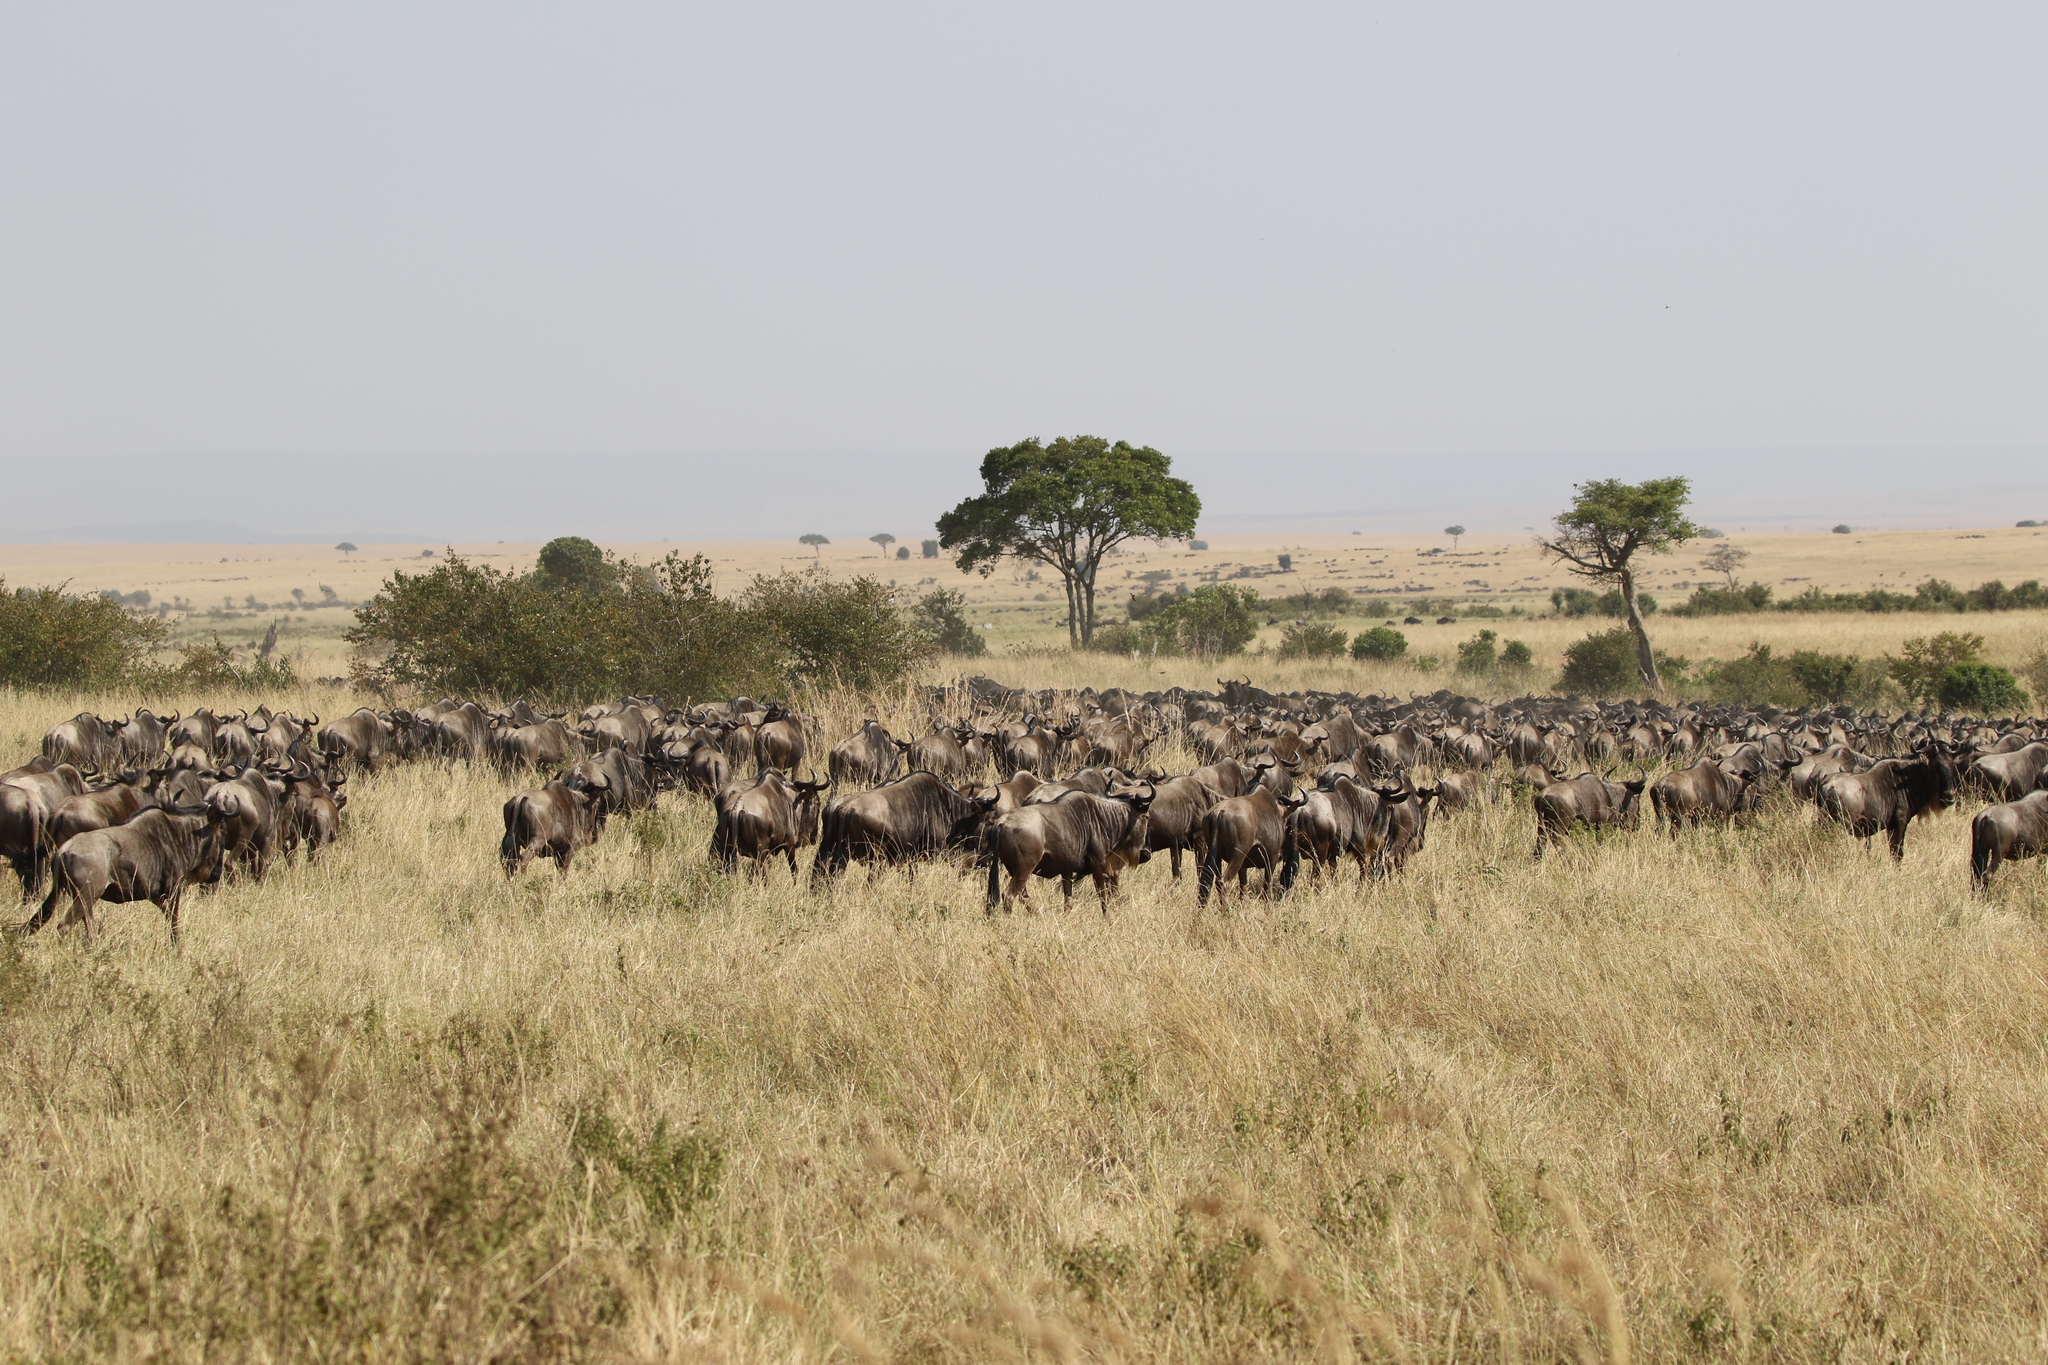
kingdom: Animalia
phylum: Chordata
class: Mammalia
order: Artiodactyla
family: Bovidae
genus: Connochaetes
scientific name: Connochaetes taurinus
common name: Blue wildebeest
